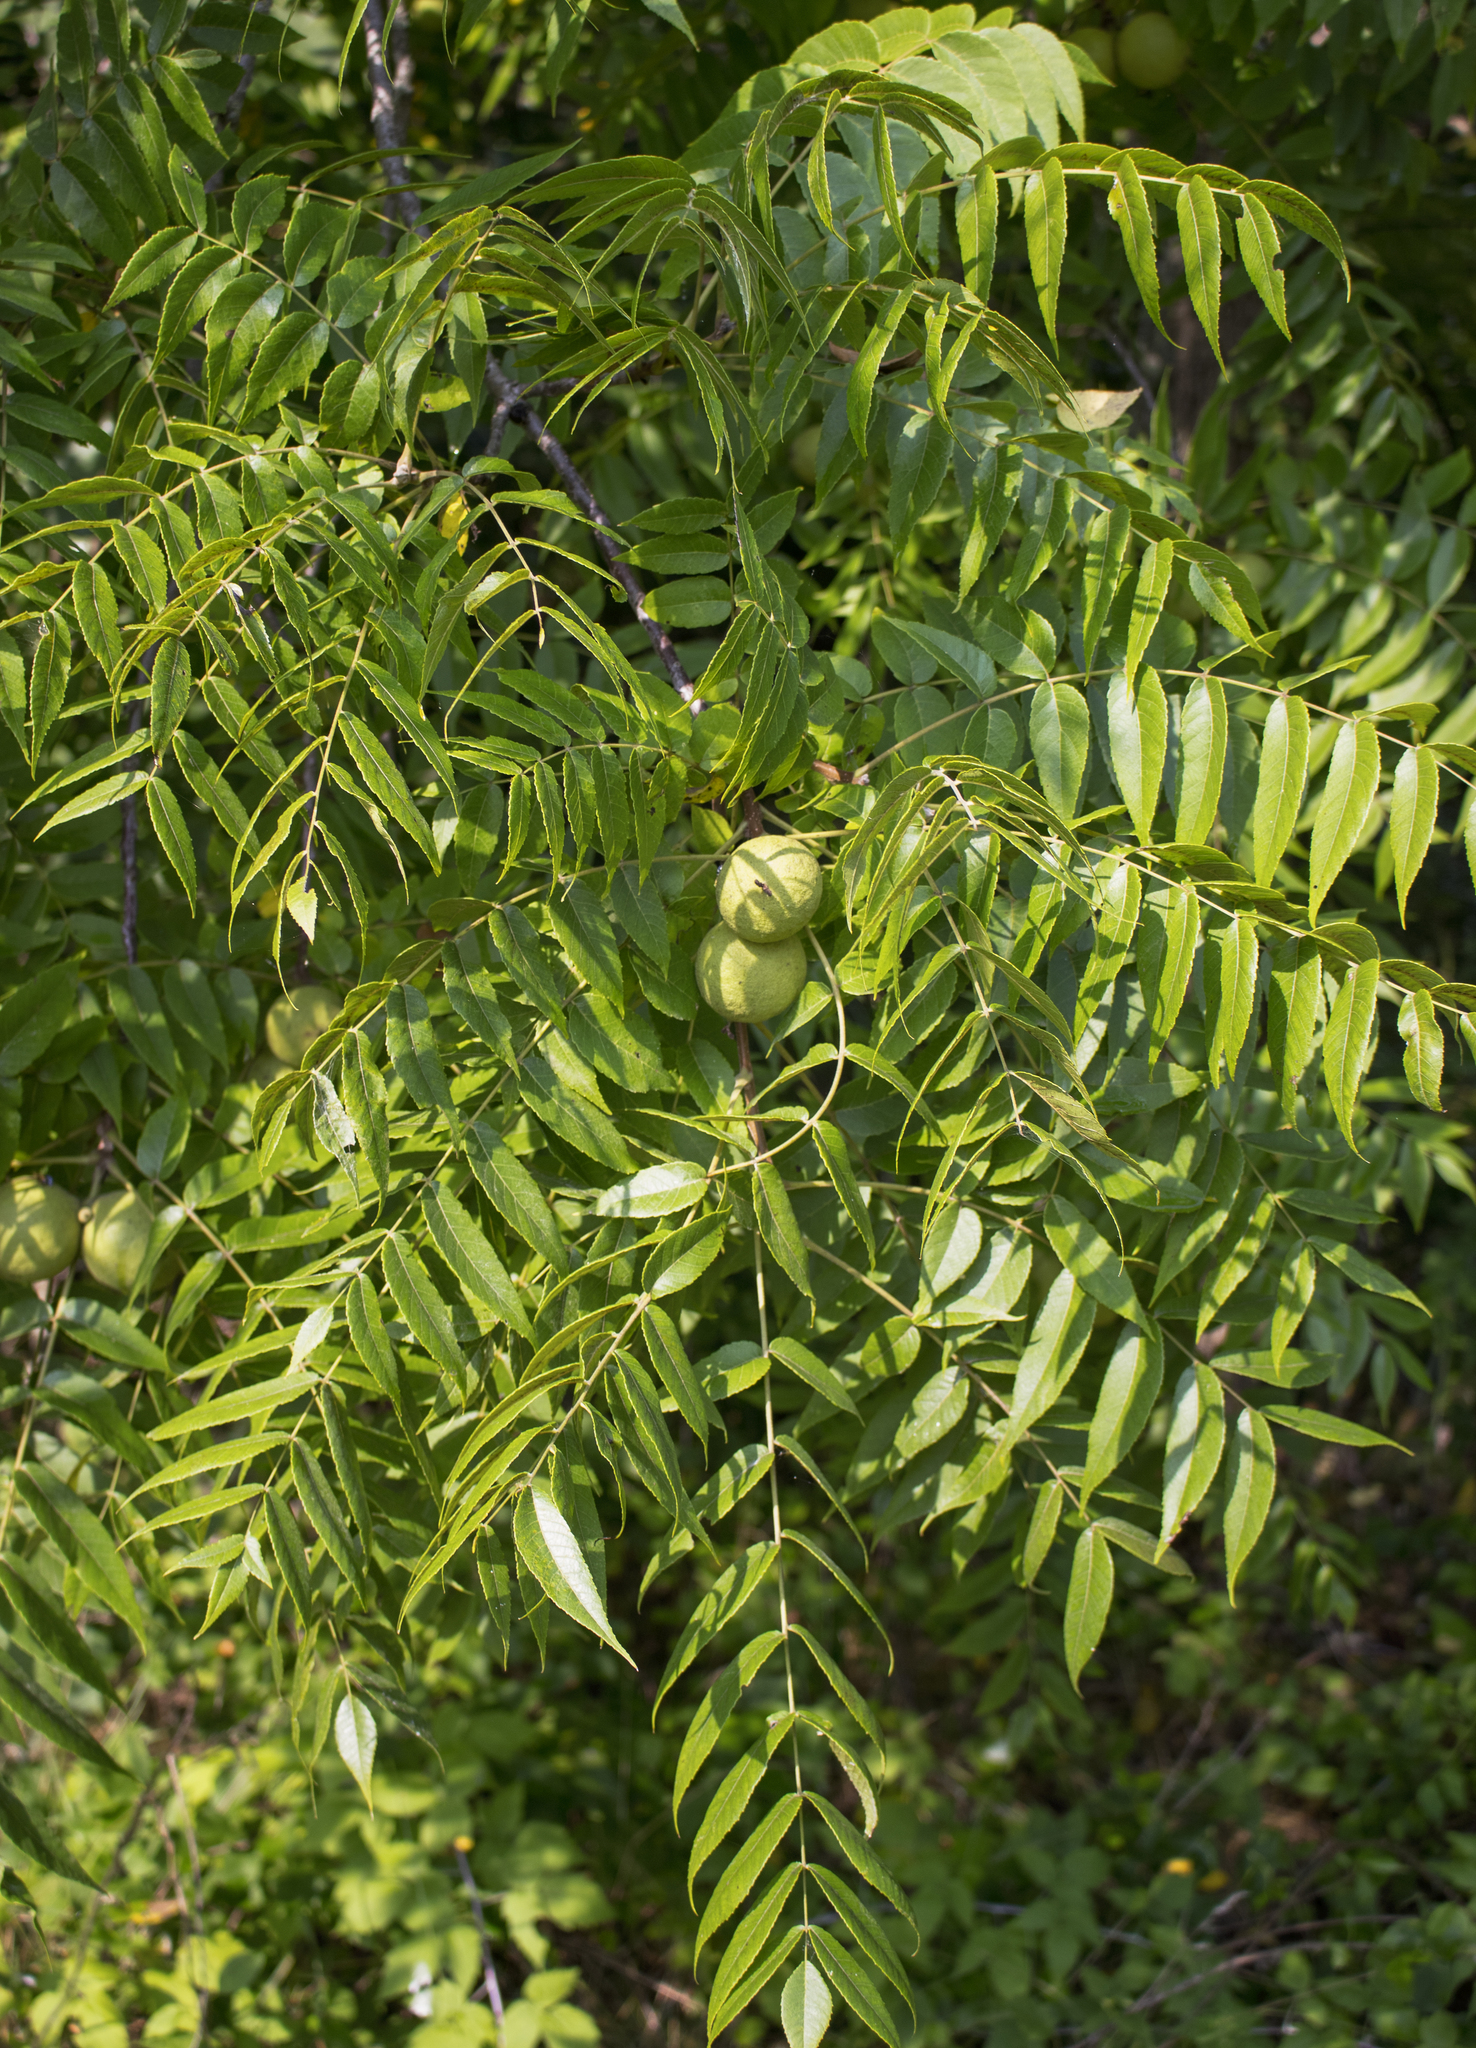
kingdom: Plantae
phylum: Tracheophyta
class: Magnoliopsida
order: Fagales
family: Juglandaceae
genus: Juglans
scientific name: Juglans nigra
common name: Black walnut
